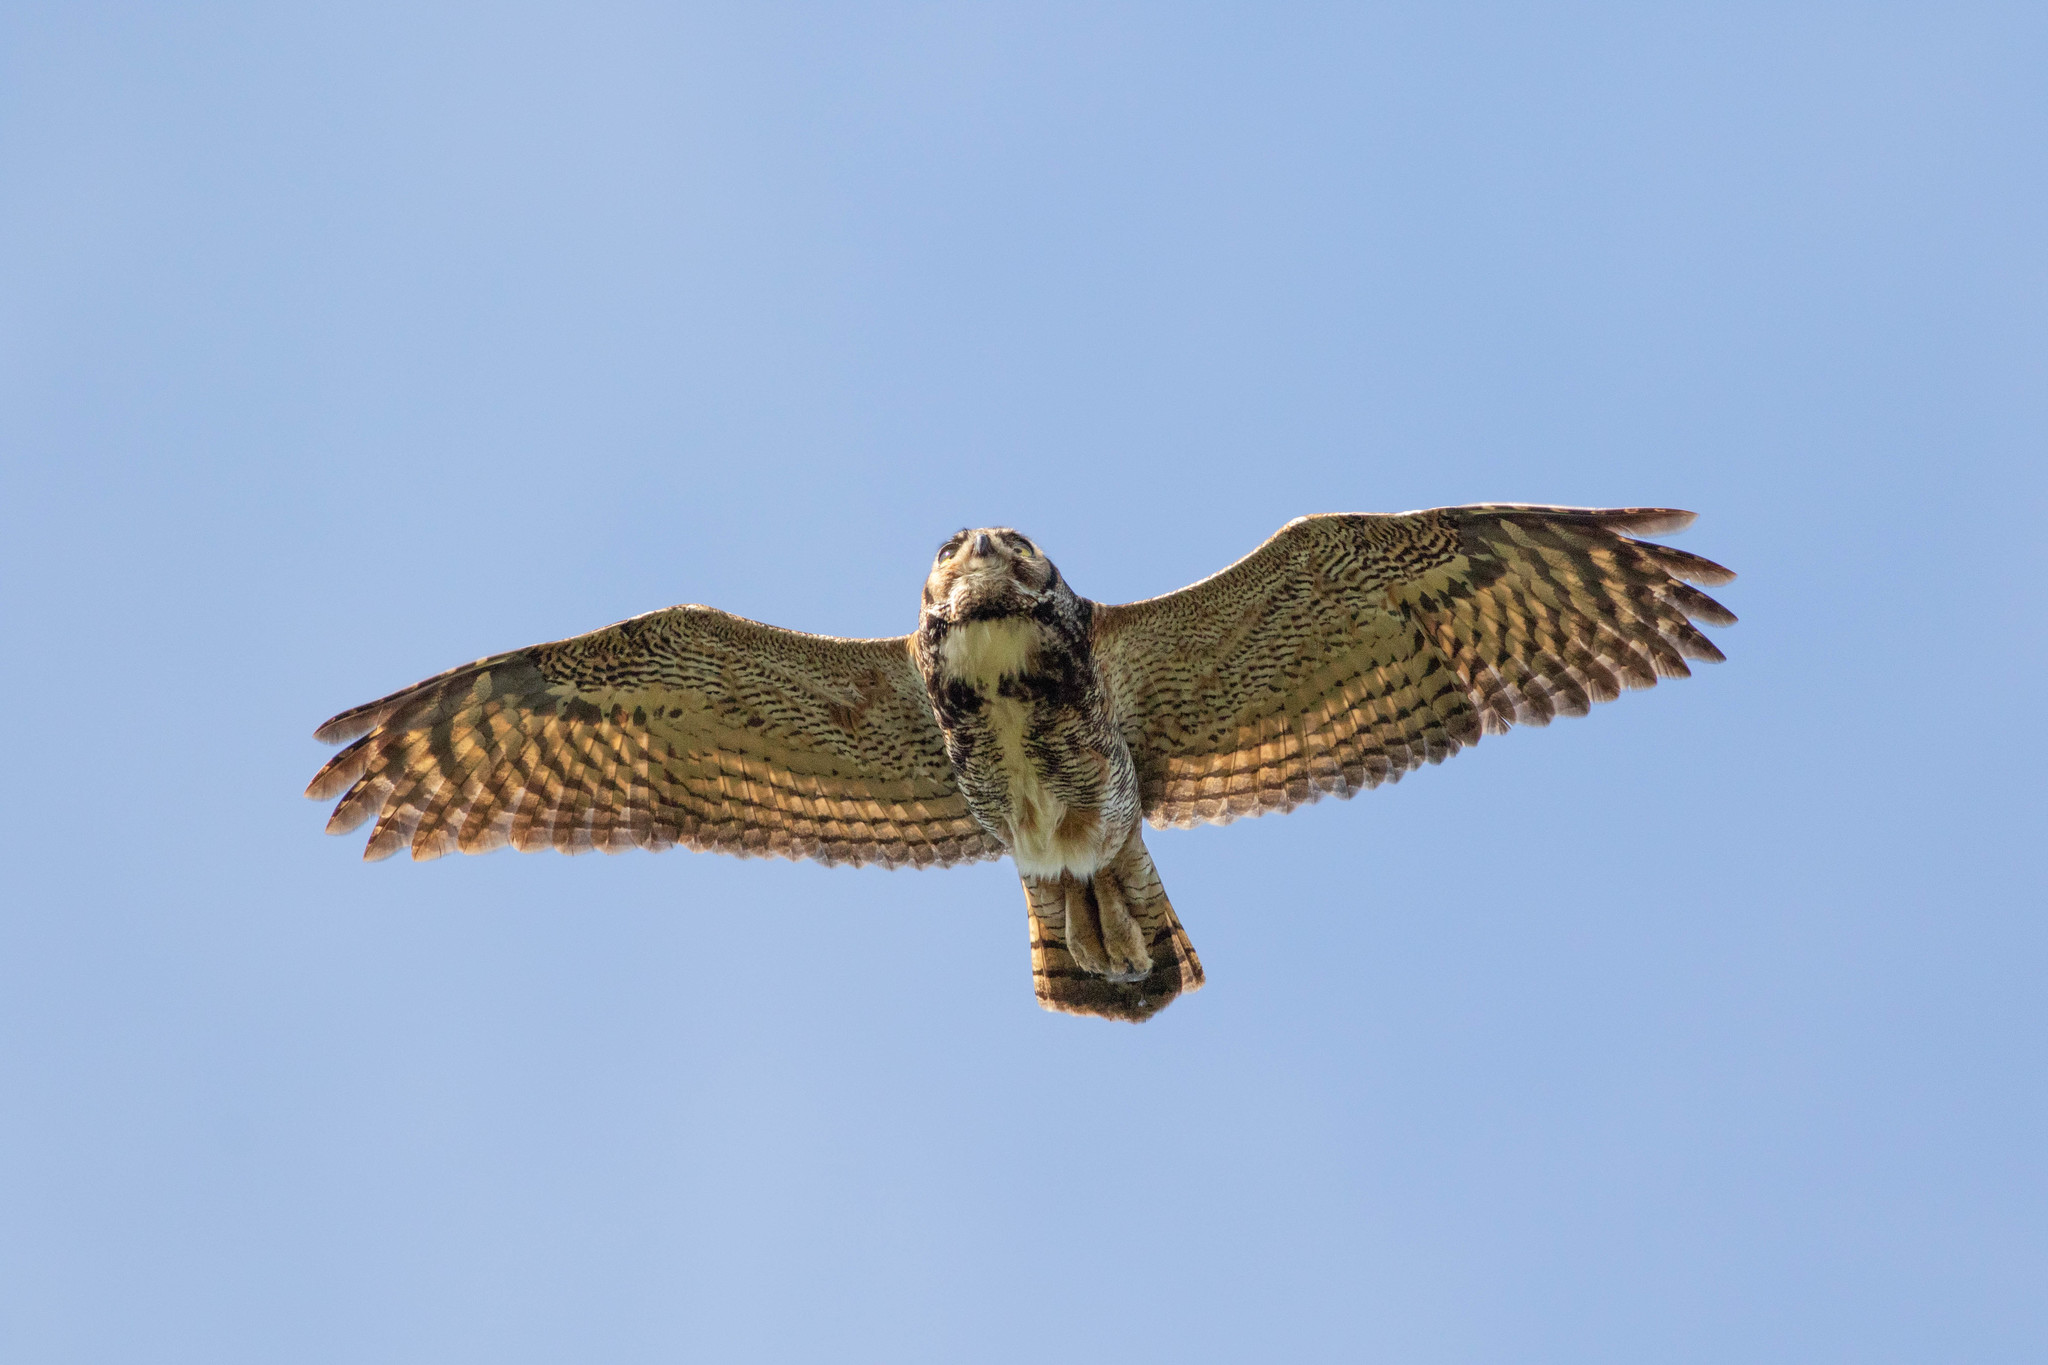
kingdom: Animalia
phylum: Chordata
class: Aves
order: Strigiformes
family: Strigidae
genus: Bubo
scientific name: Bubo virginianus
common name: Great horned owl
